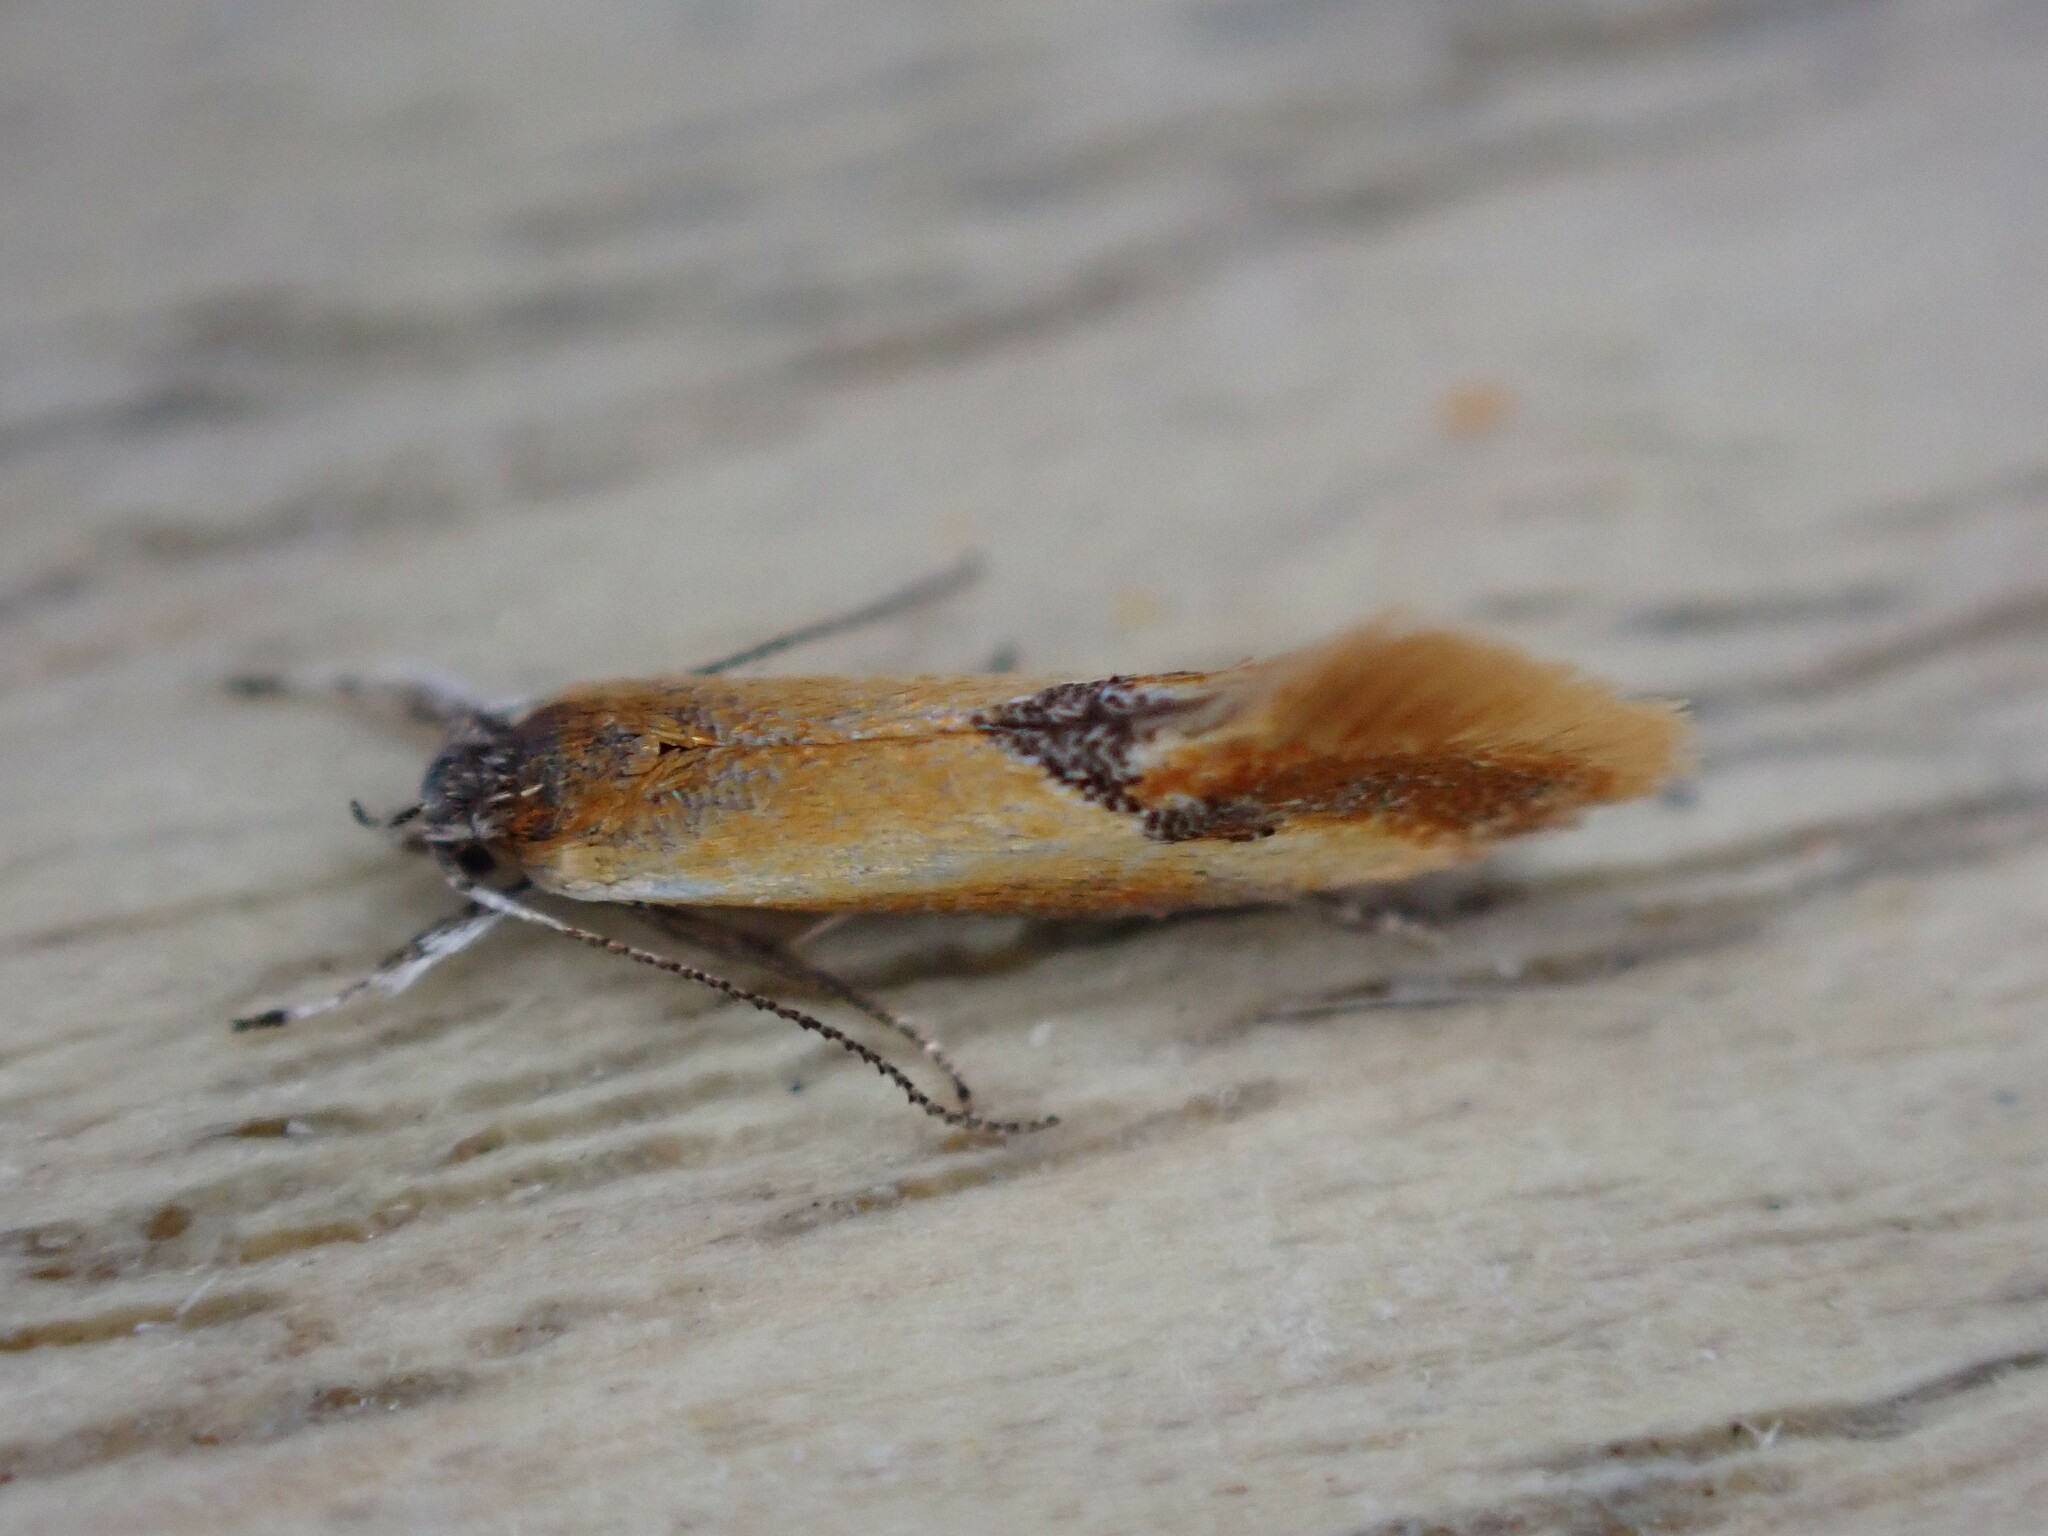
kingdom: Animalia
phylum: Arthropoda
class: Insecta
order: Lepidoptera
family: Oecophoridae
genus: Batia
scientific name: Batia lunaris
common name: Moth
